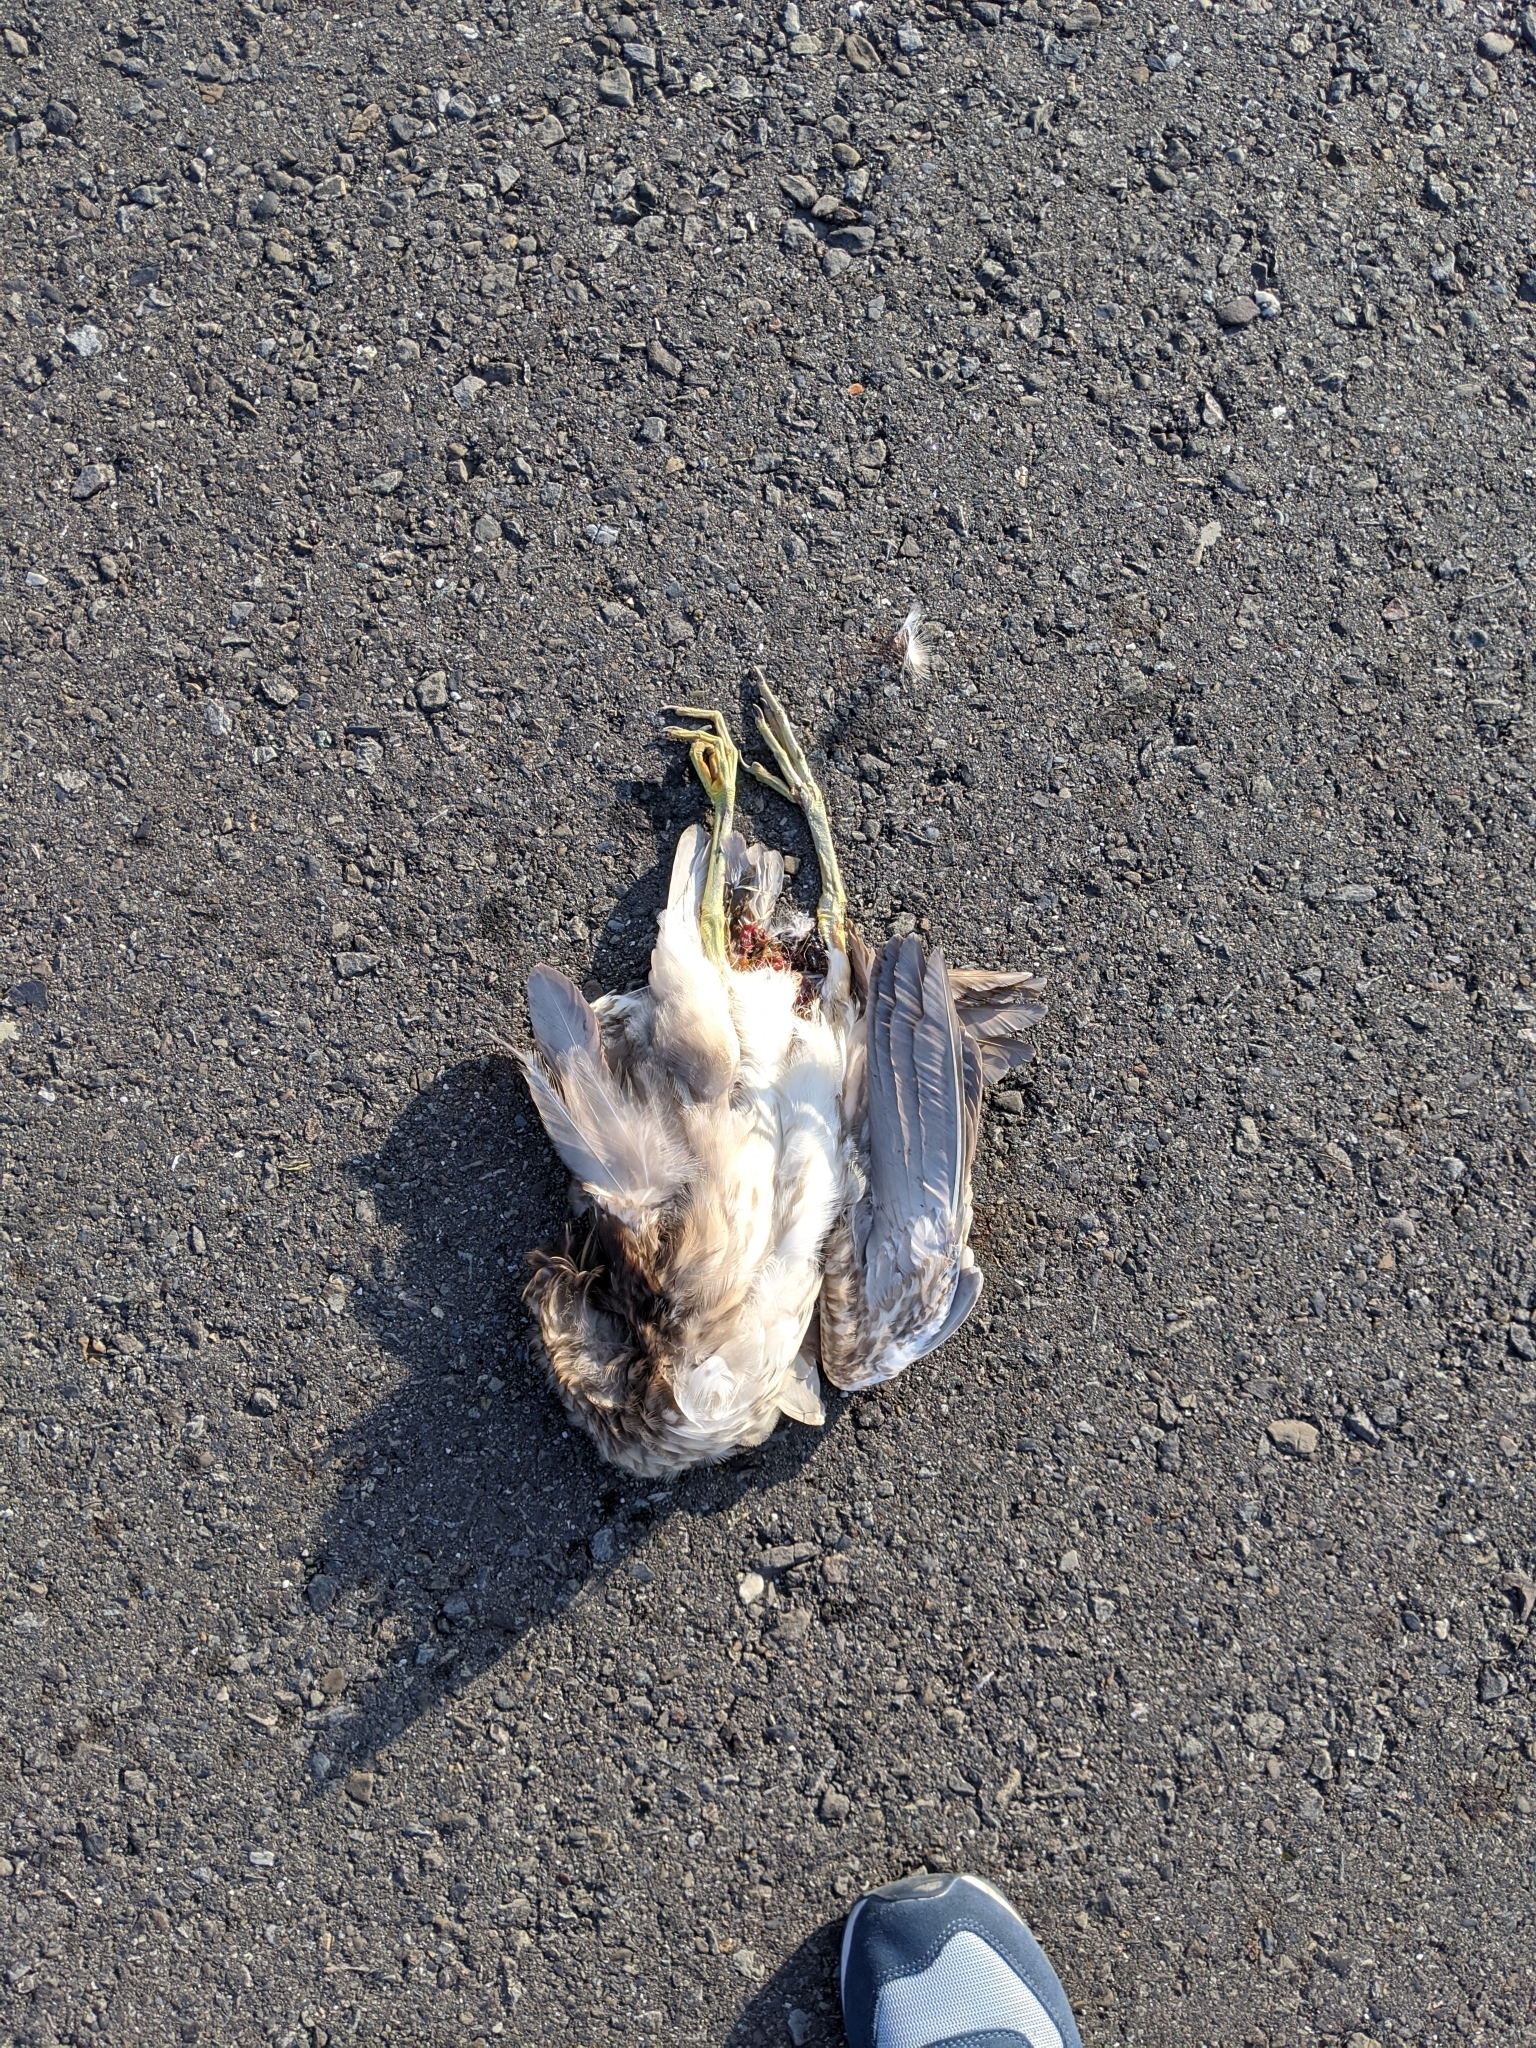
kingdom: Animalia
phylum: Chordata
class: Aves
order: Pelecaniformes
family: Ardeidae
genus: Nycticorax
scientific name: Nycticorax nycticorax
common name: Black-crowned night heron
